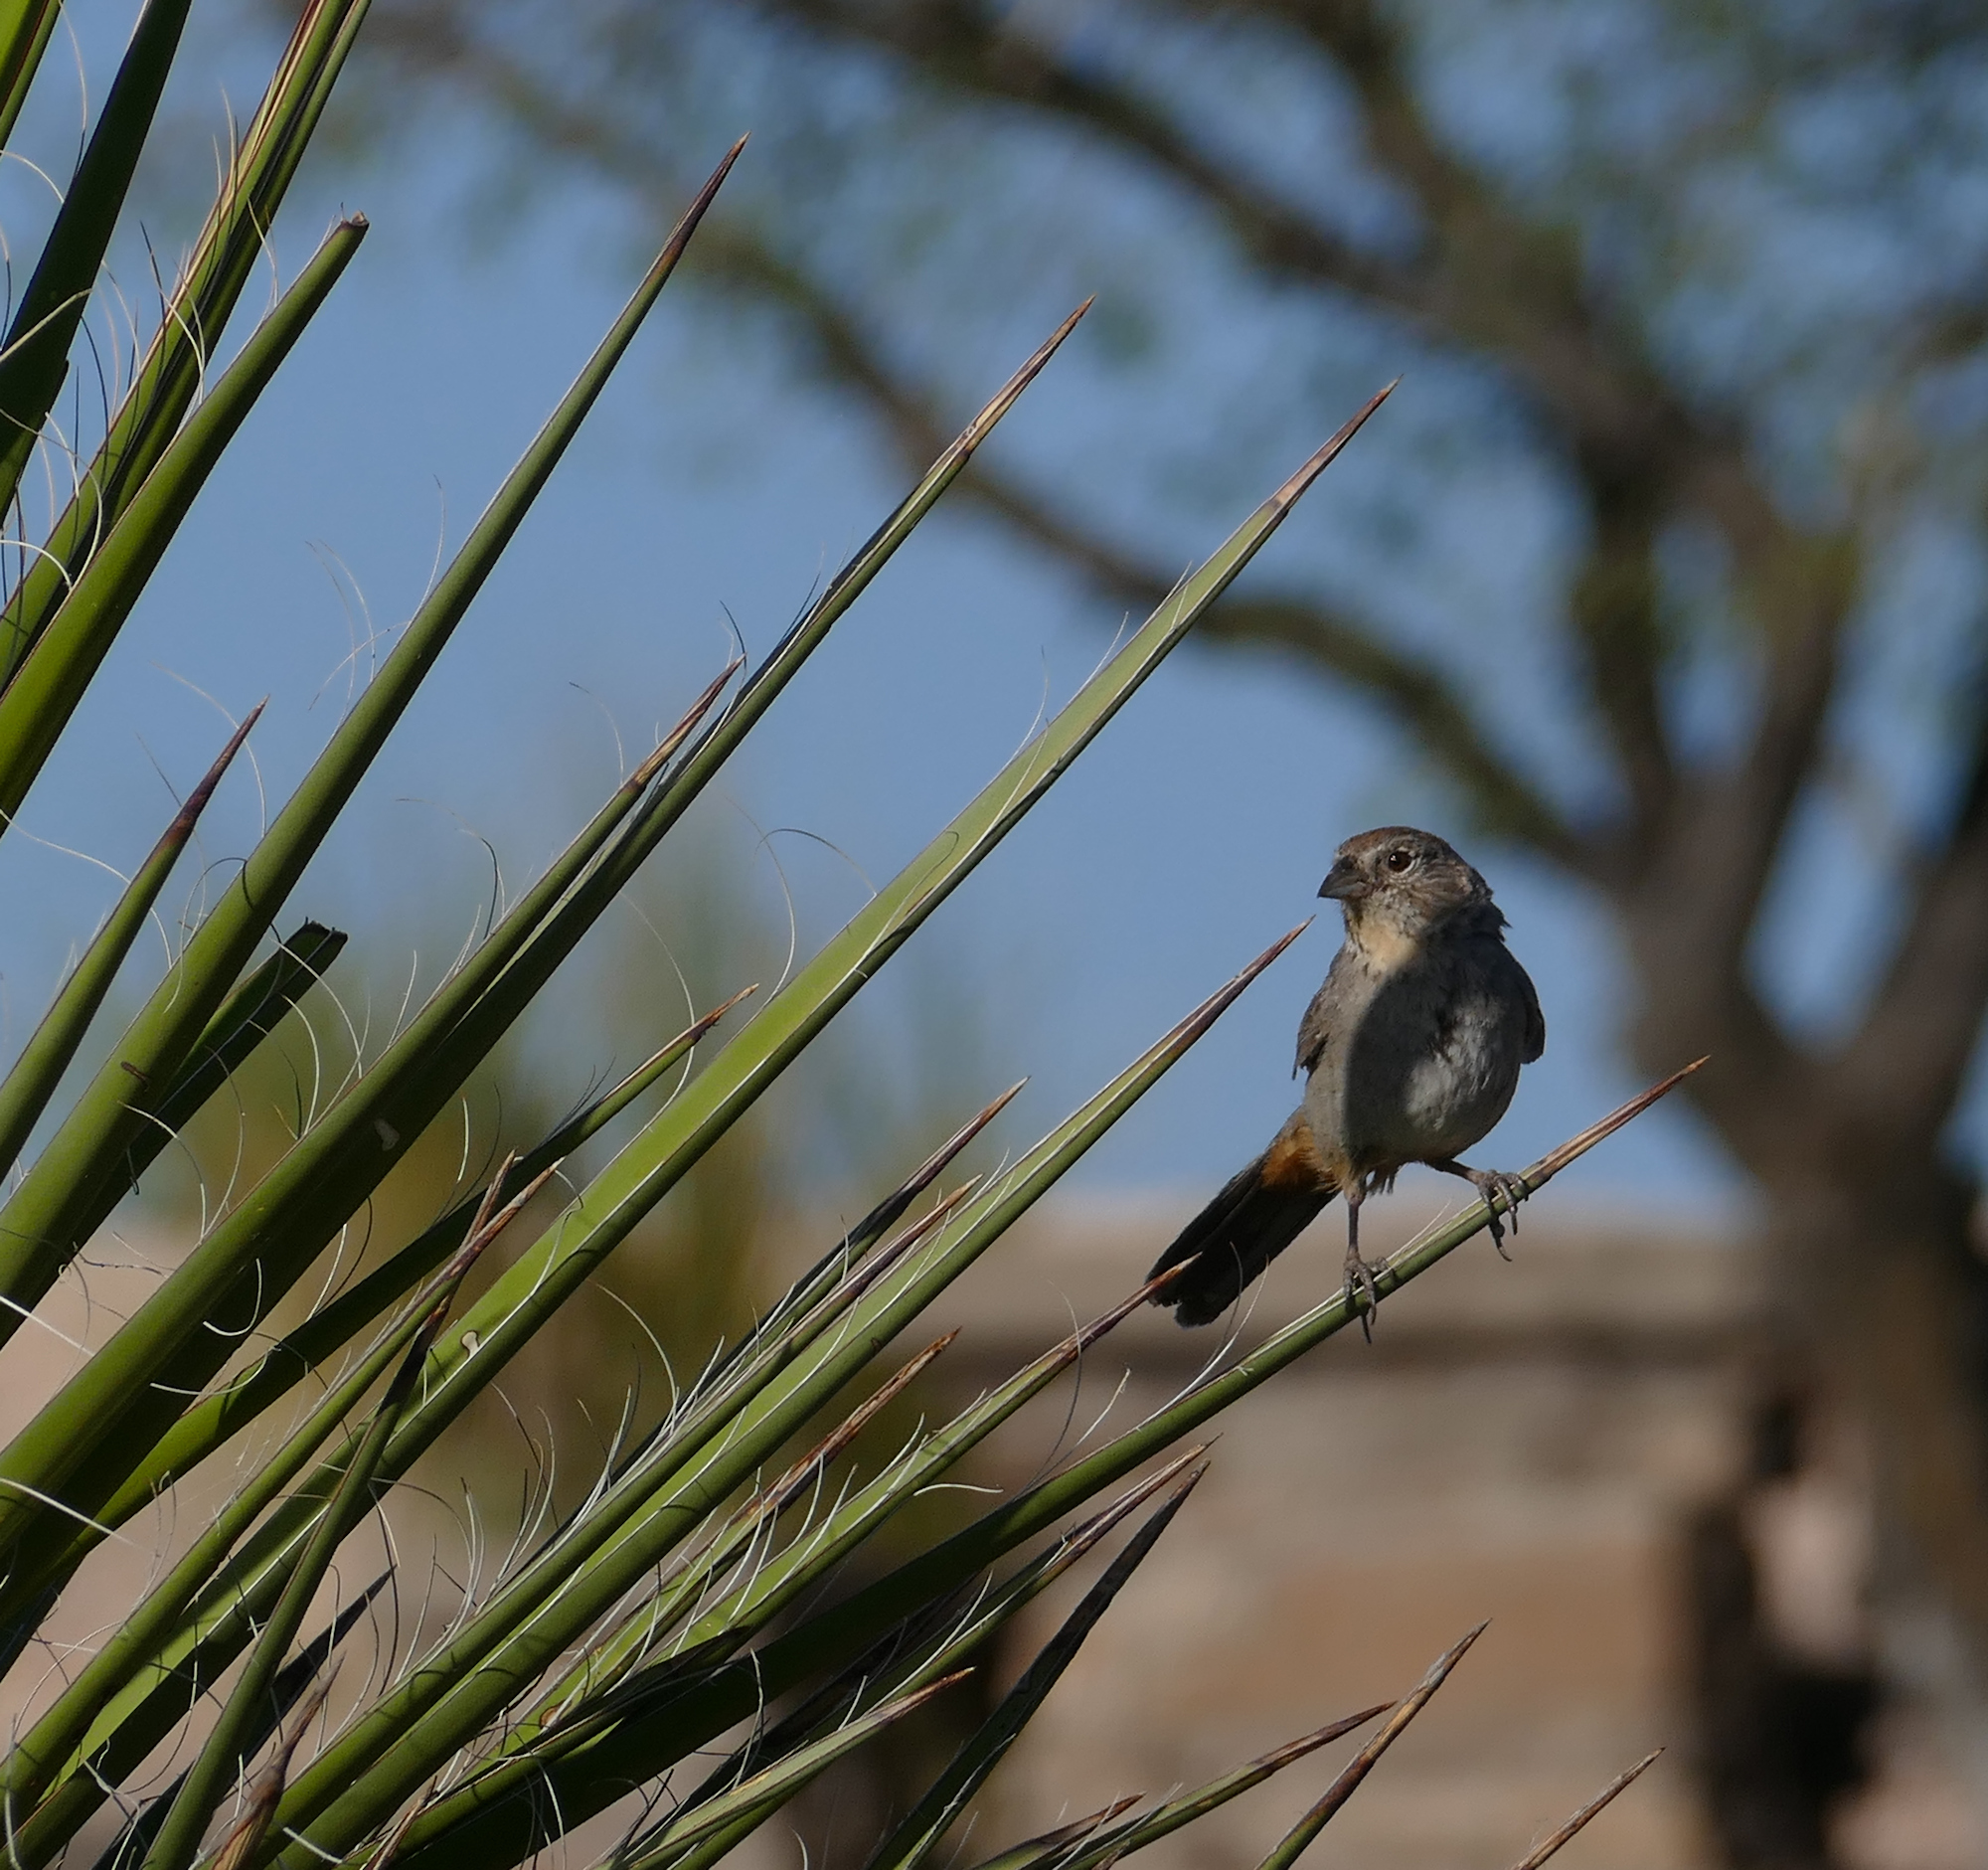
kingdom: Animalia
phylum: Chordata
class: Aves
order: Passeriformes
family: Passerellidae
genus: Melozone
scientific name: Melozone fusca
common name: Canyon towhee
